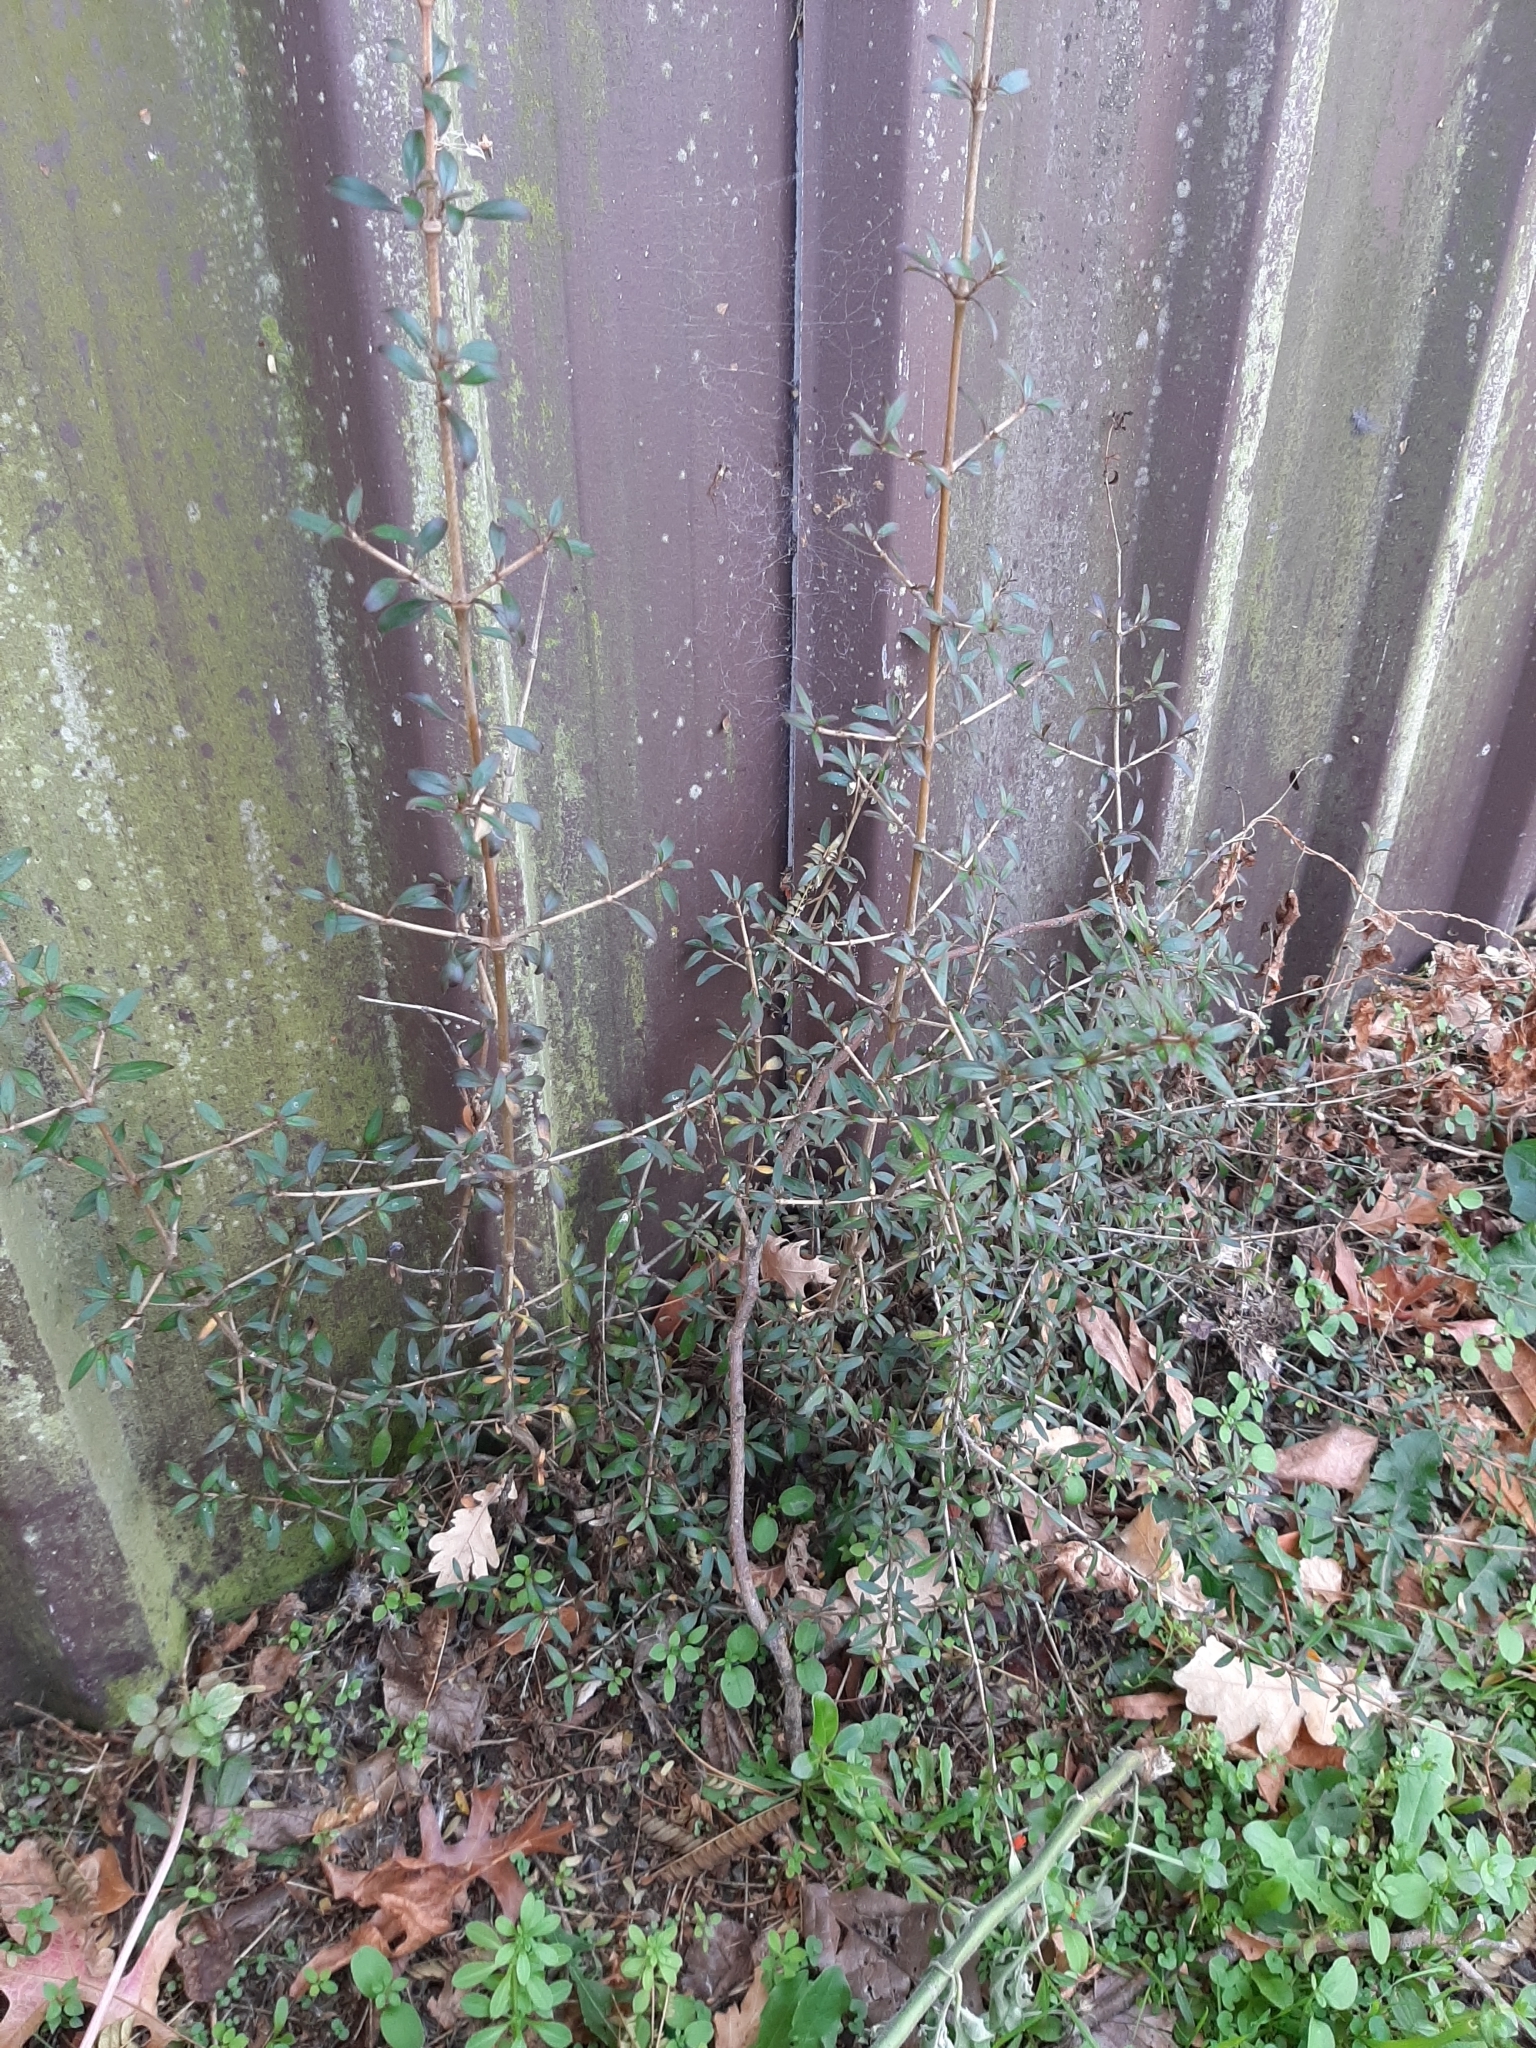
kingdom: Plantae
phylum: Tracheophyta
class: Magnoliopsida
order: Gentianales
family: Rubiaceae
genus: Coprosma
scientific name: Coprosma propinqua
